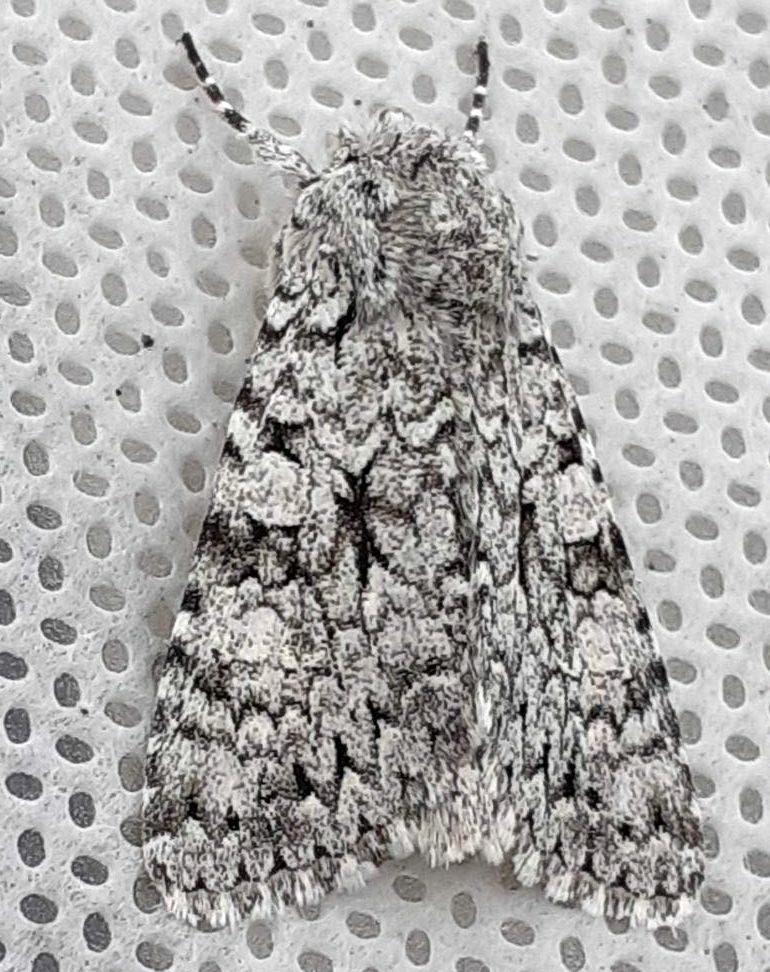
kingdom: Animalia
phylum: Arthropoda
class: Insecta
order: Lepidoptera
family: Noctuidae
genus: Antitype
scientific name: Antitype chi
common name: Grey chi
